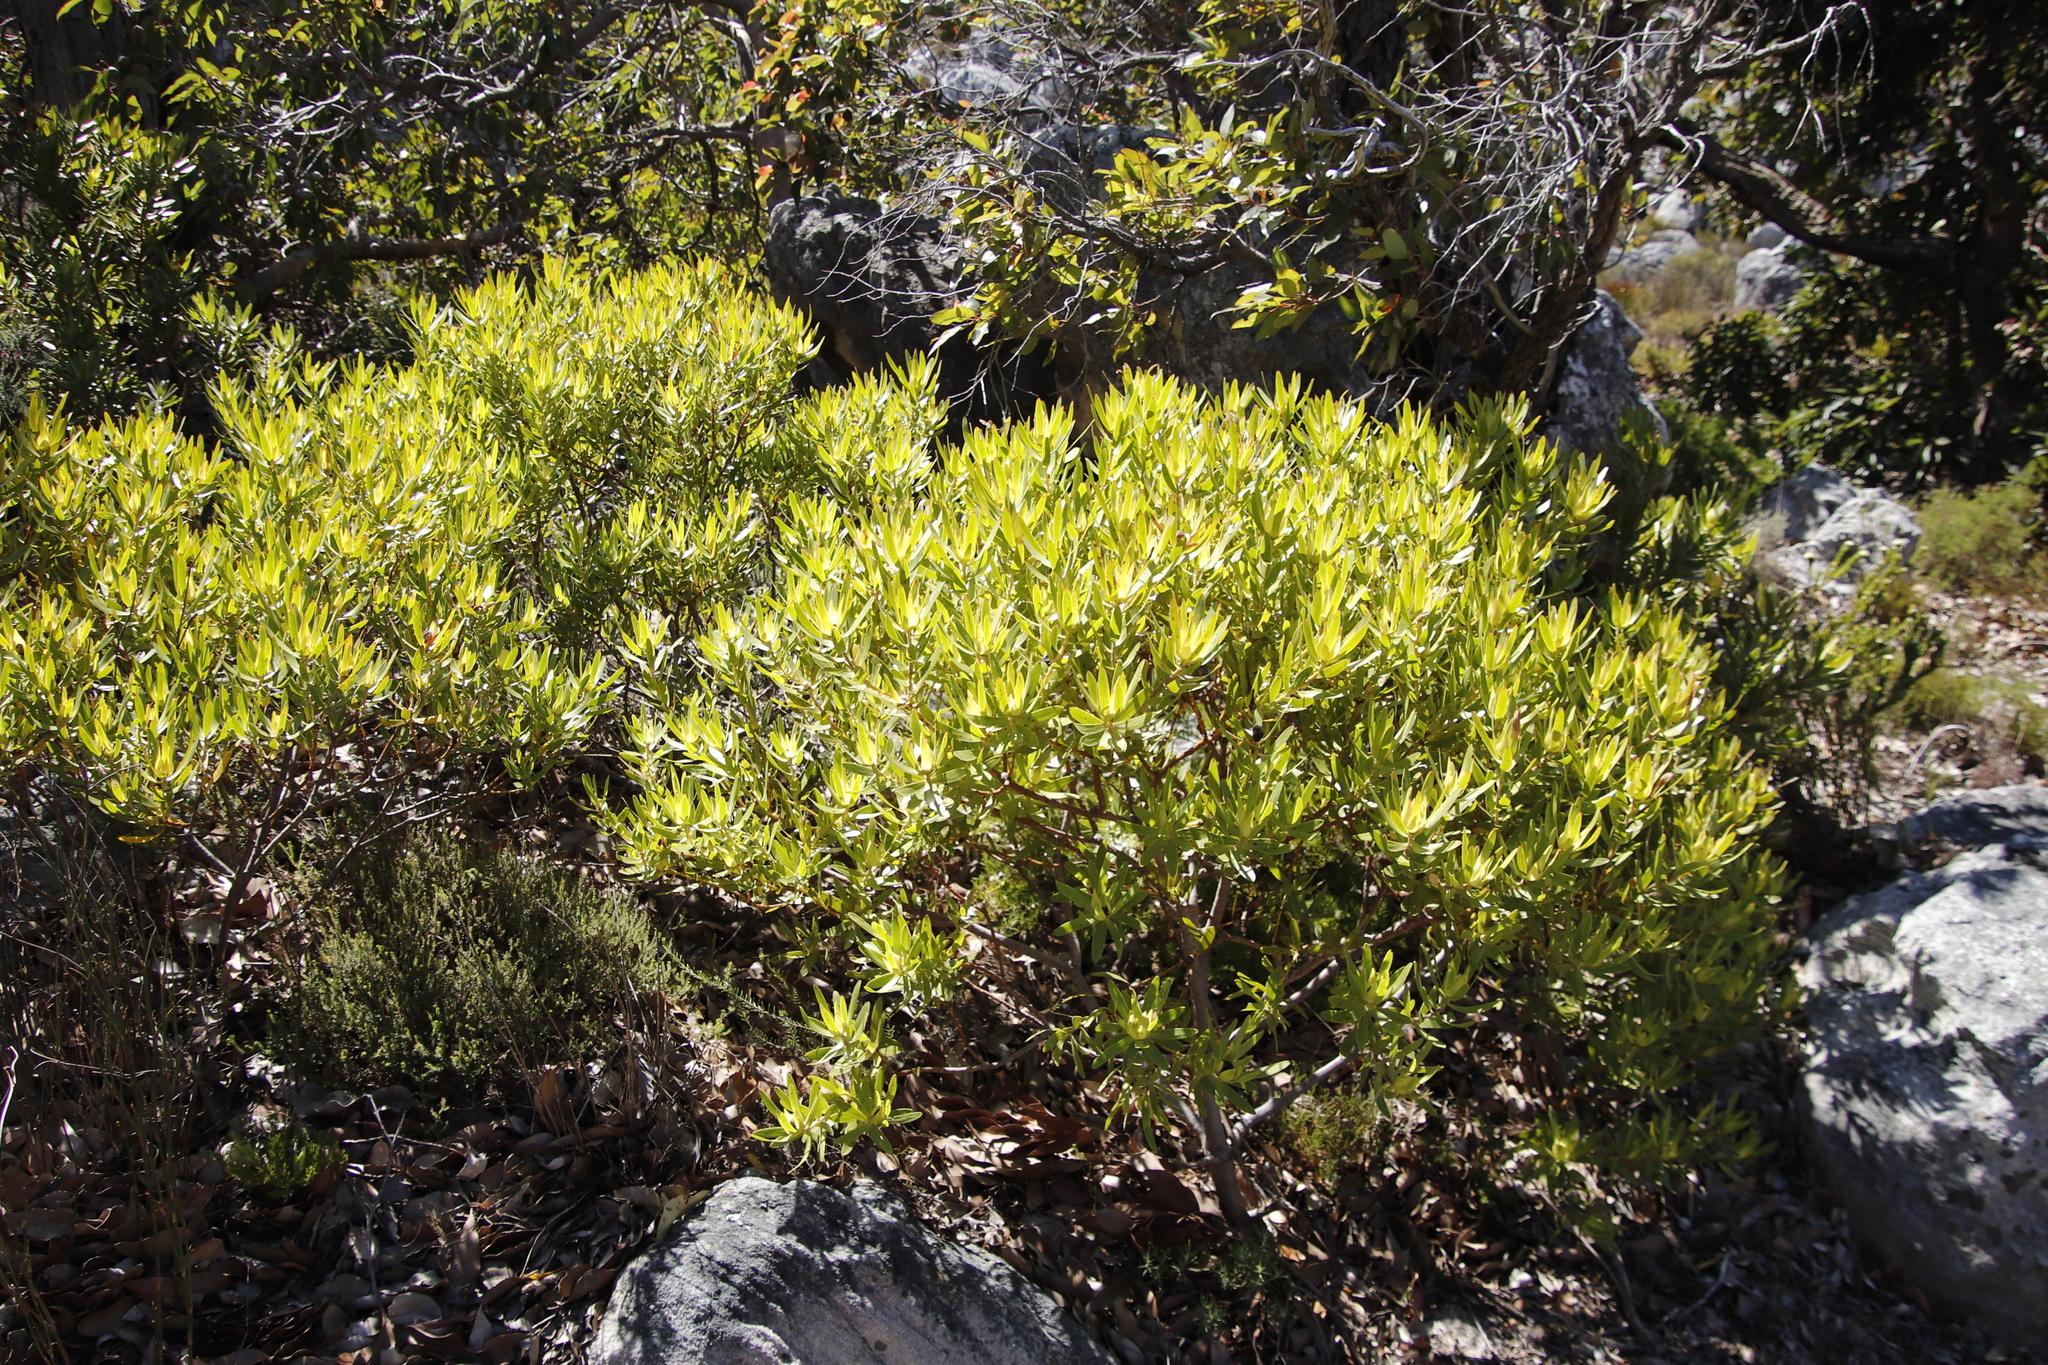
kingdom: Plantae
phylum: Tracheophyta
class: Magnoliopsida
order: Proteales
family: Proteaceae
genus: Leucadendron
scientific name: Leucadendron laureolum
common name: Golden sunshinebush
